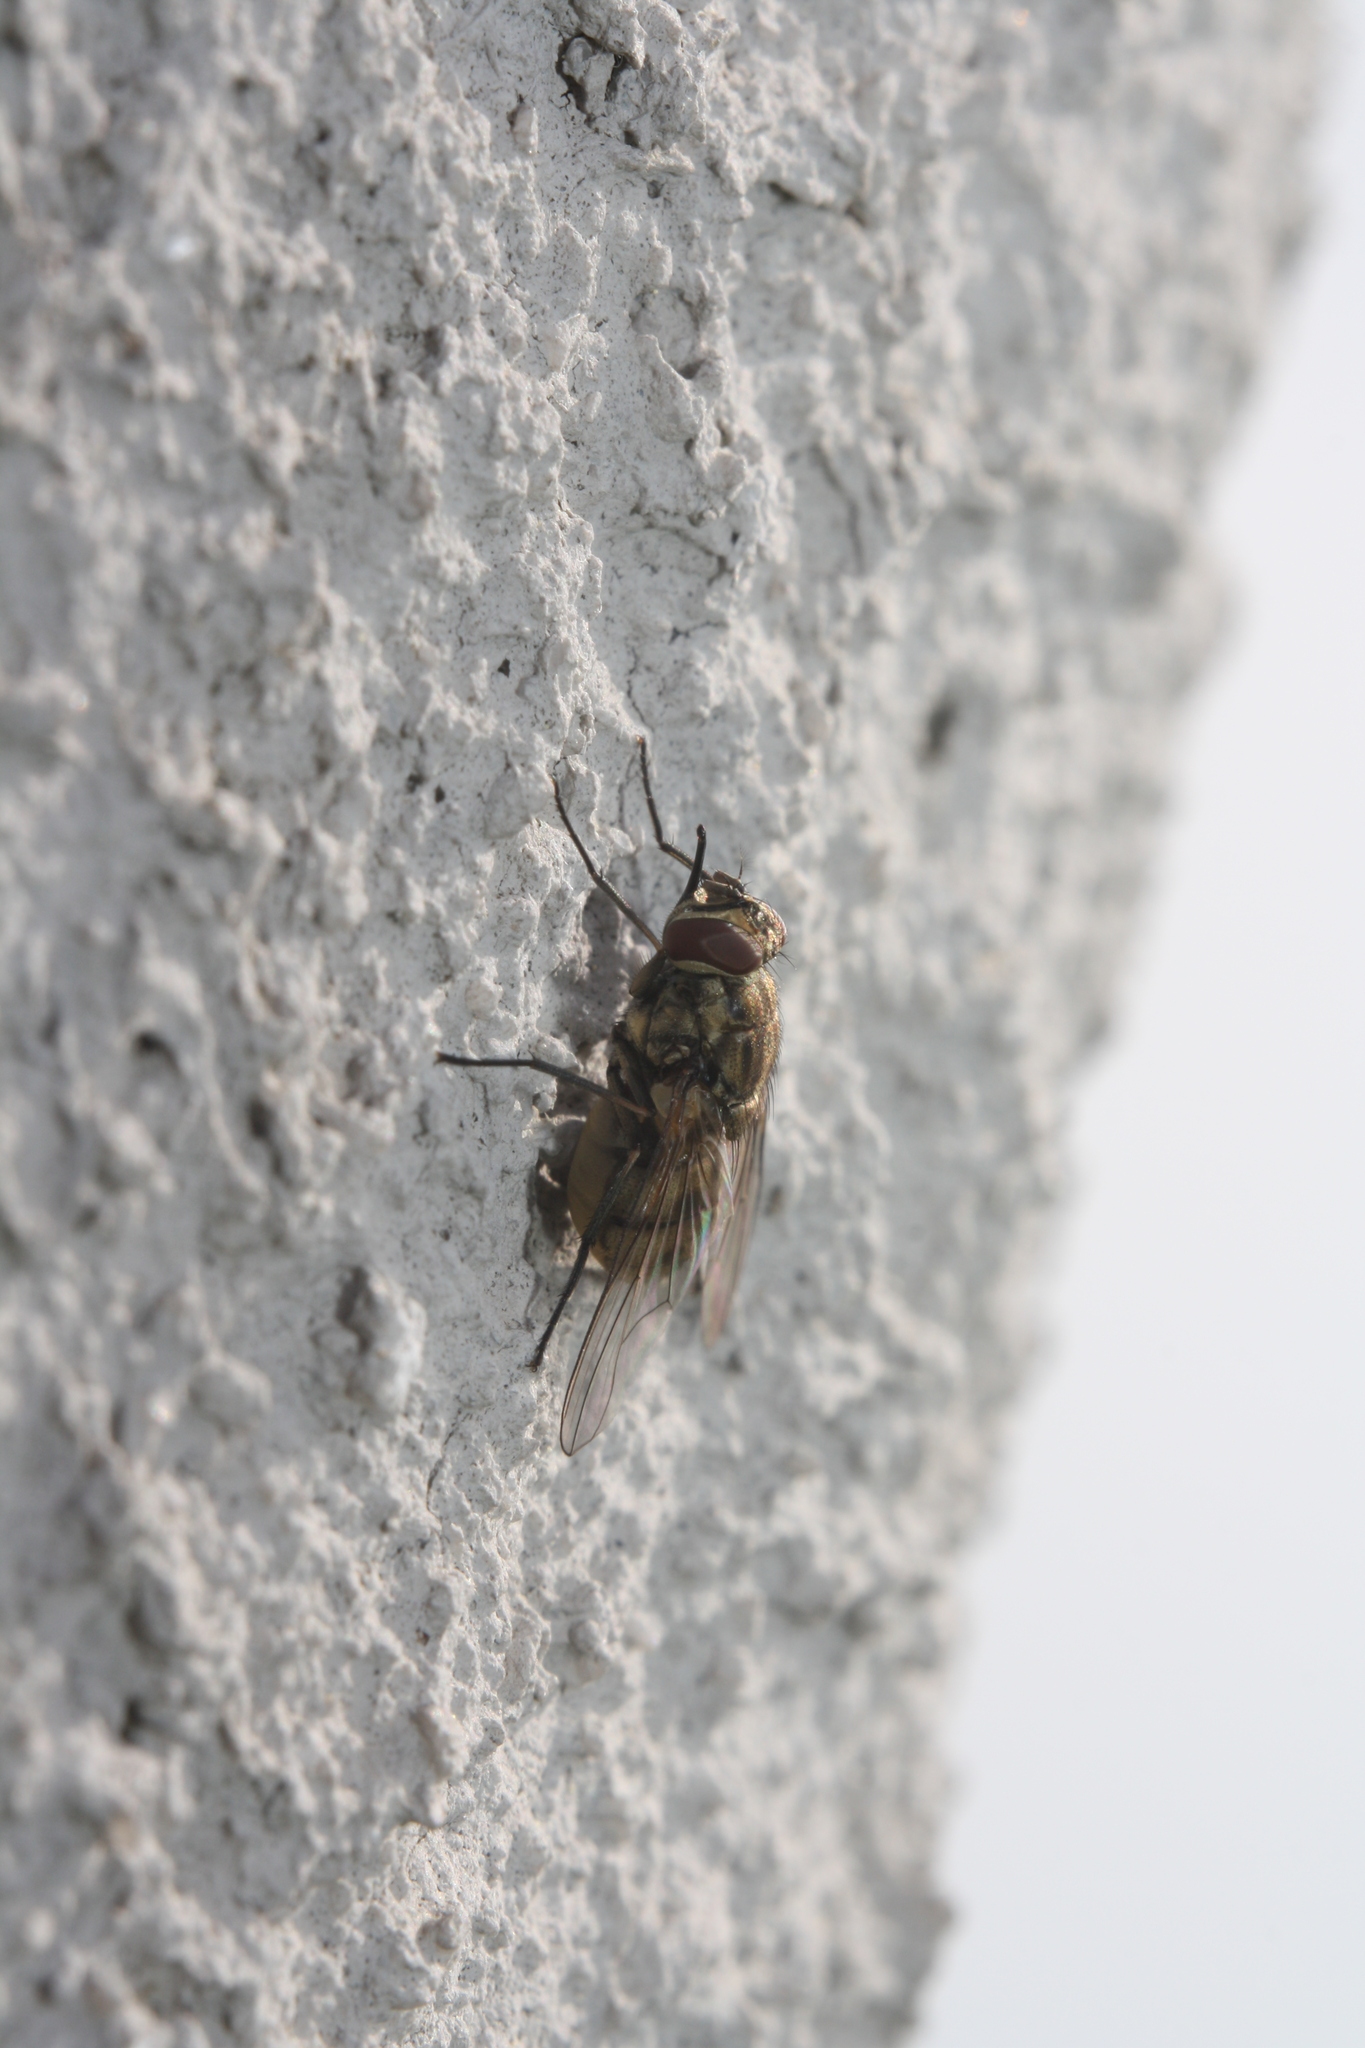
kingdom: Animalia
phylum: Arthropoda
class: Insecta
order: Diptera
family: Muscidae
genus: Stomoxys
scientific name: Stomoxys calcitrans
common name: Stable fly
